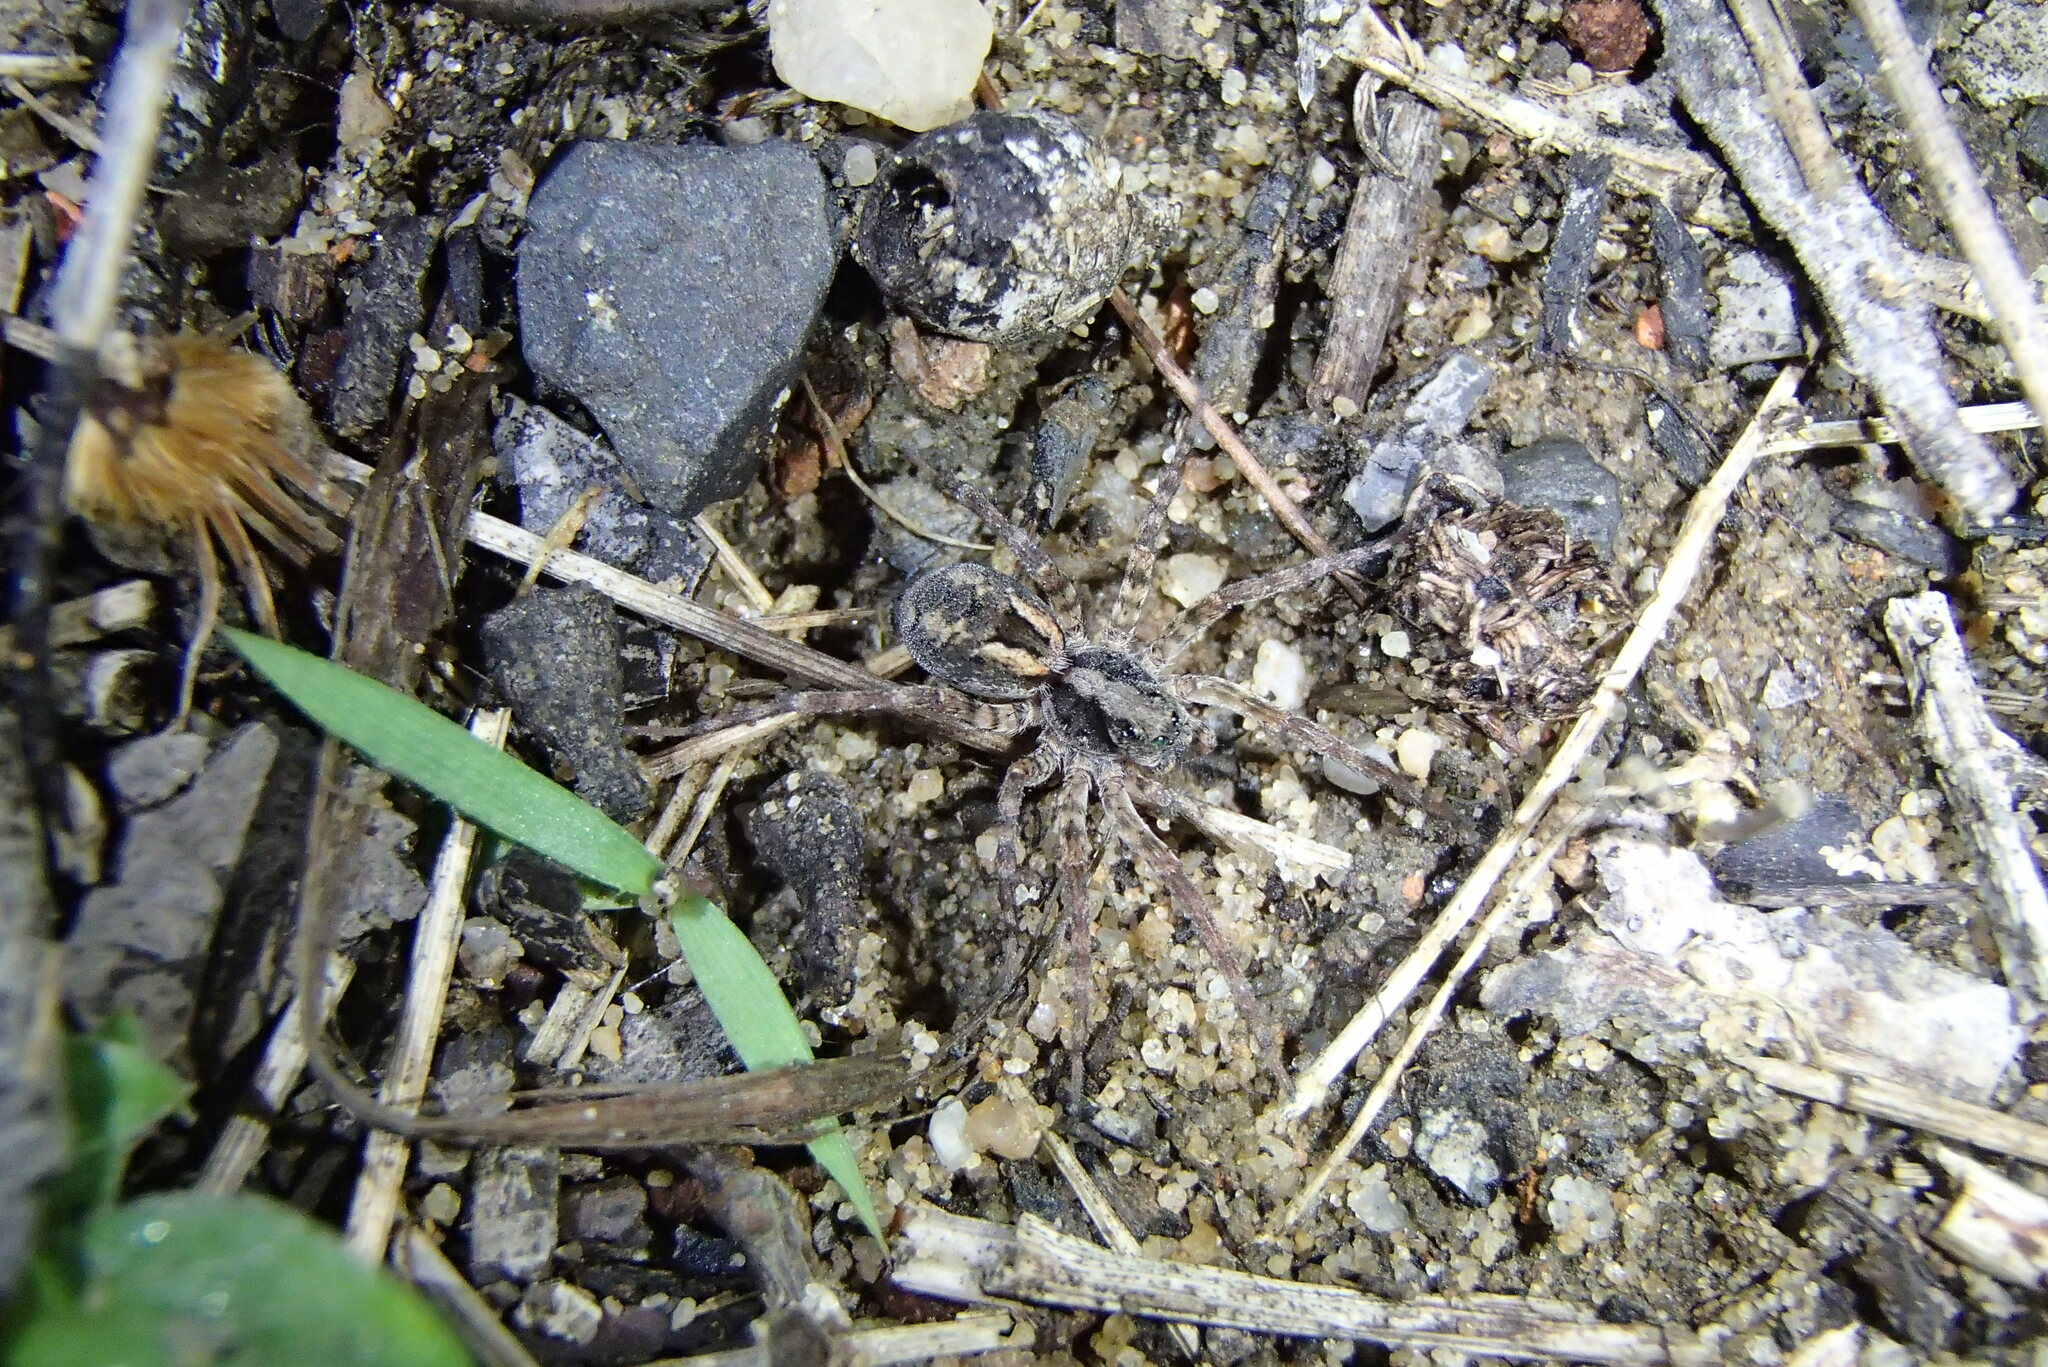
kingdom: Animalia
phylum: Arthropoda
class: Arachnida
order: Araneae
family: Lycosidae
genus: Venator
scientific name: Venator spenceri
